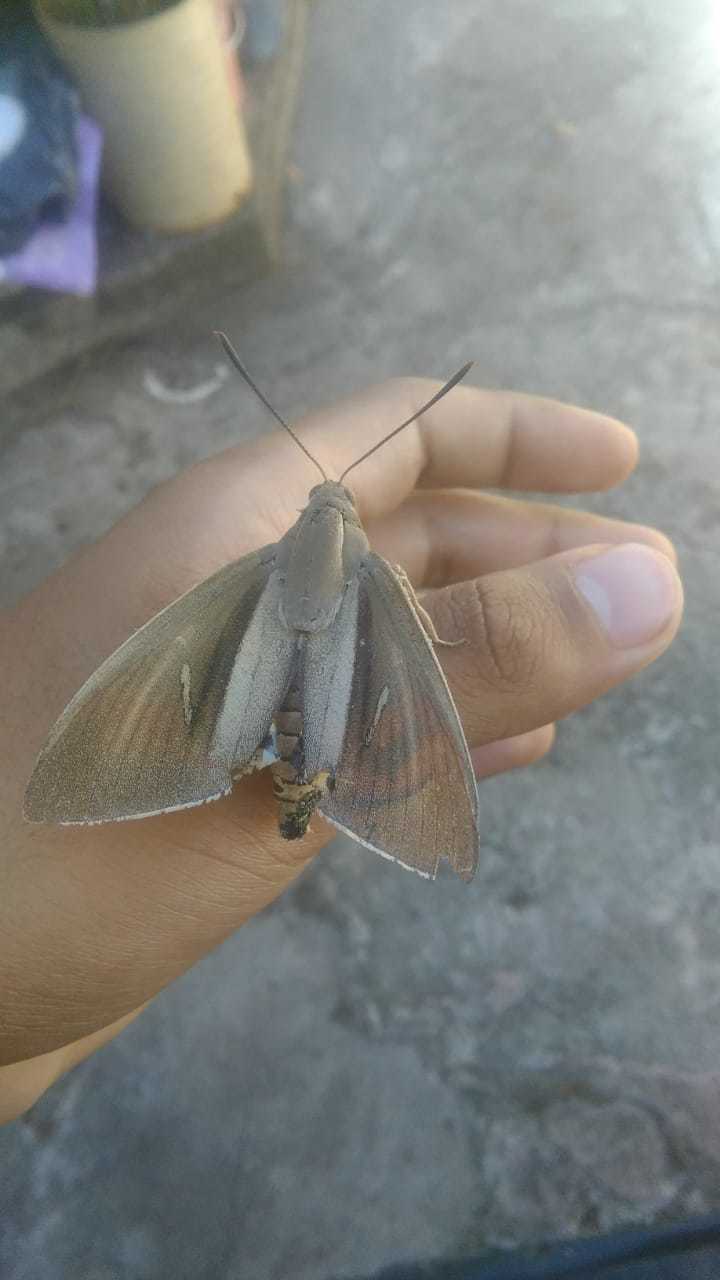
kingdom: Animalia
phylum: Arthropoda
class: Insecta
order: Lepidoptera
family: Castniidae
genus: Paysandisia
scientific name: Paysandisia archon
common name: Palm moth
